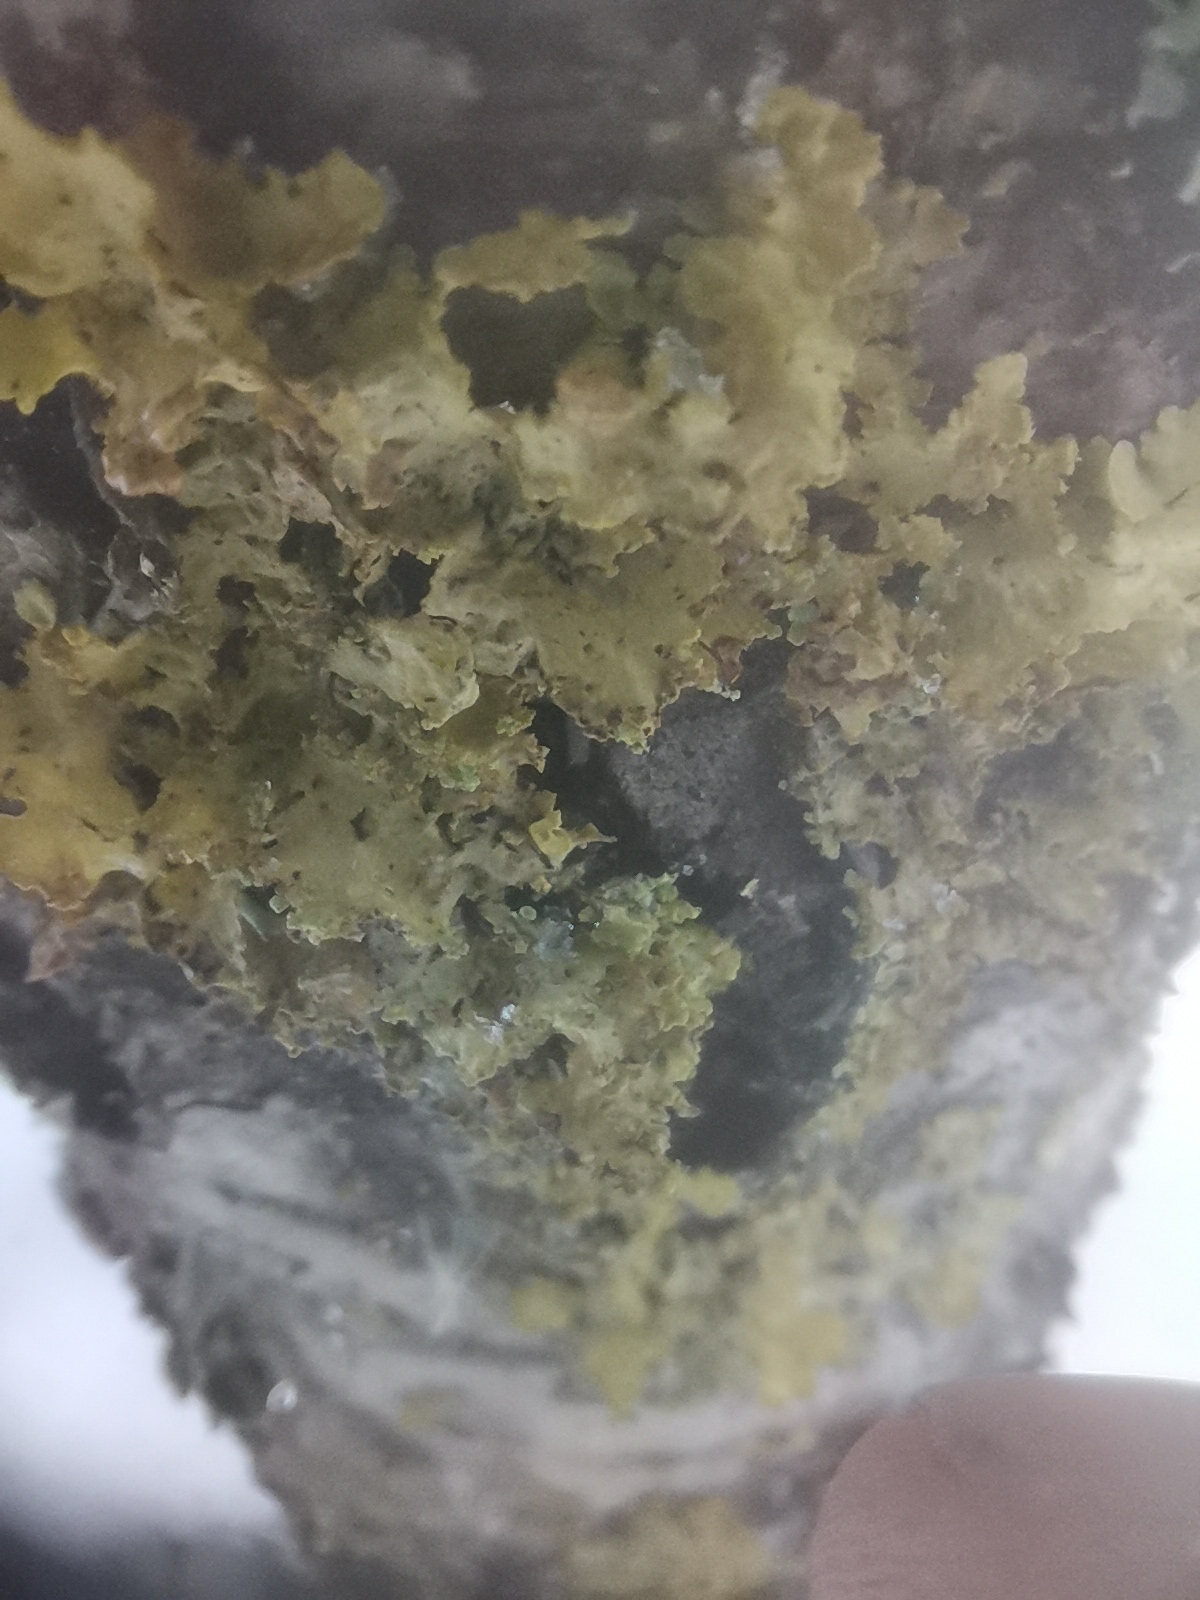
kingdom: Fungi
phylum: Ascomycota
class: Lecanoromycetes
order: Lecanorales
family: Parmeliaceae
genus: Vulpicida
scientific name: Vulpicida pinastri
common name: Powdered sunshine lichen
